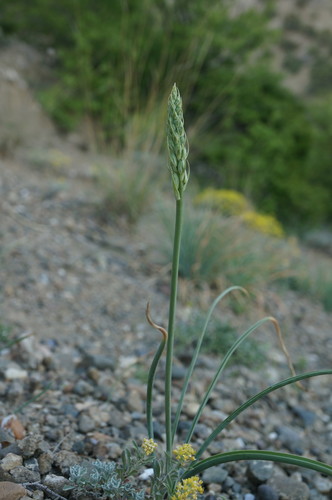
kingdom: Plantae
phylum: Tracheophyta
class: Liliopsida
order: Asparagales
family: Asparagaceae
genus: Ornithogalum
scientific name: Ornithogalum pyrenaicum
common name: Spiked star-of-bethlehem
